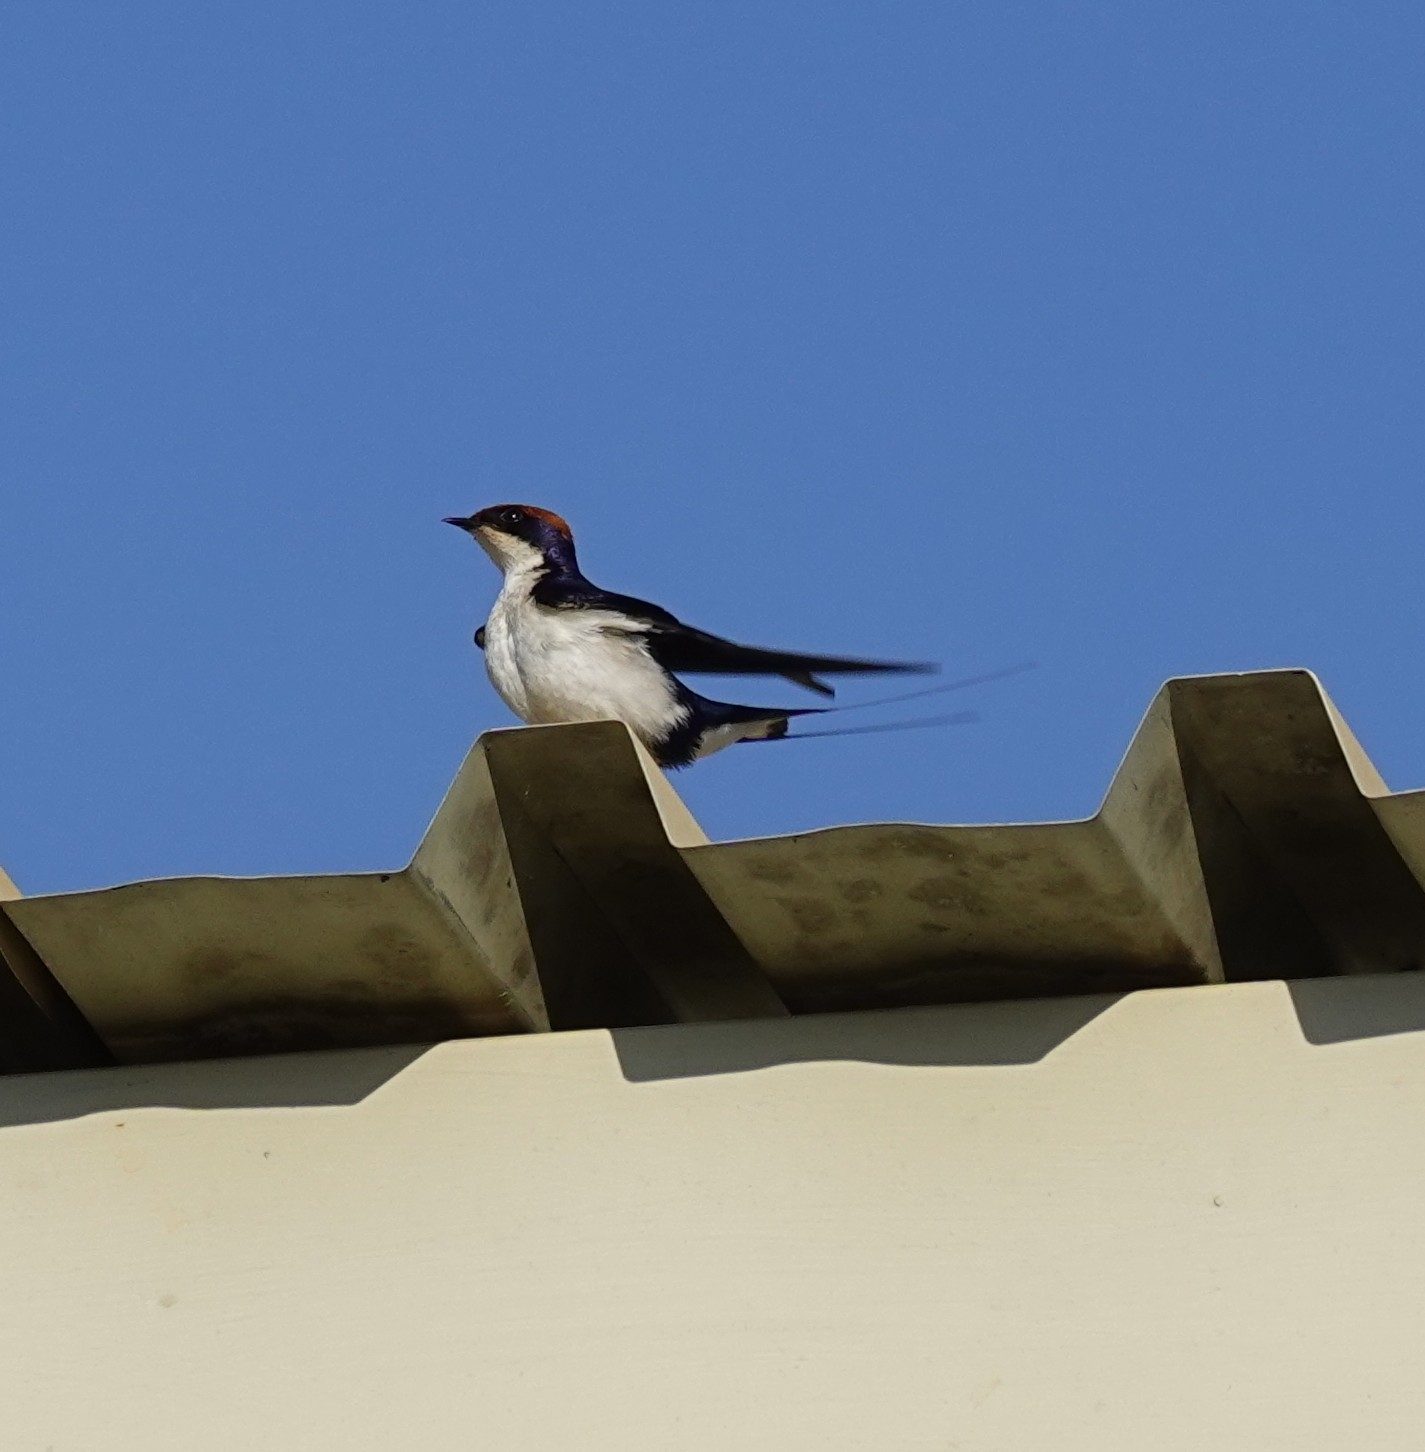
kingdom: Animalia
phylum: Chordata
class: Aves
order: Passeriformes
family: Hirundinidae
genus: Hirundo
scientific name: Hirundo smithii
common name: Wire-tailed swallow
